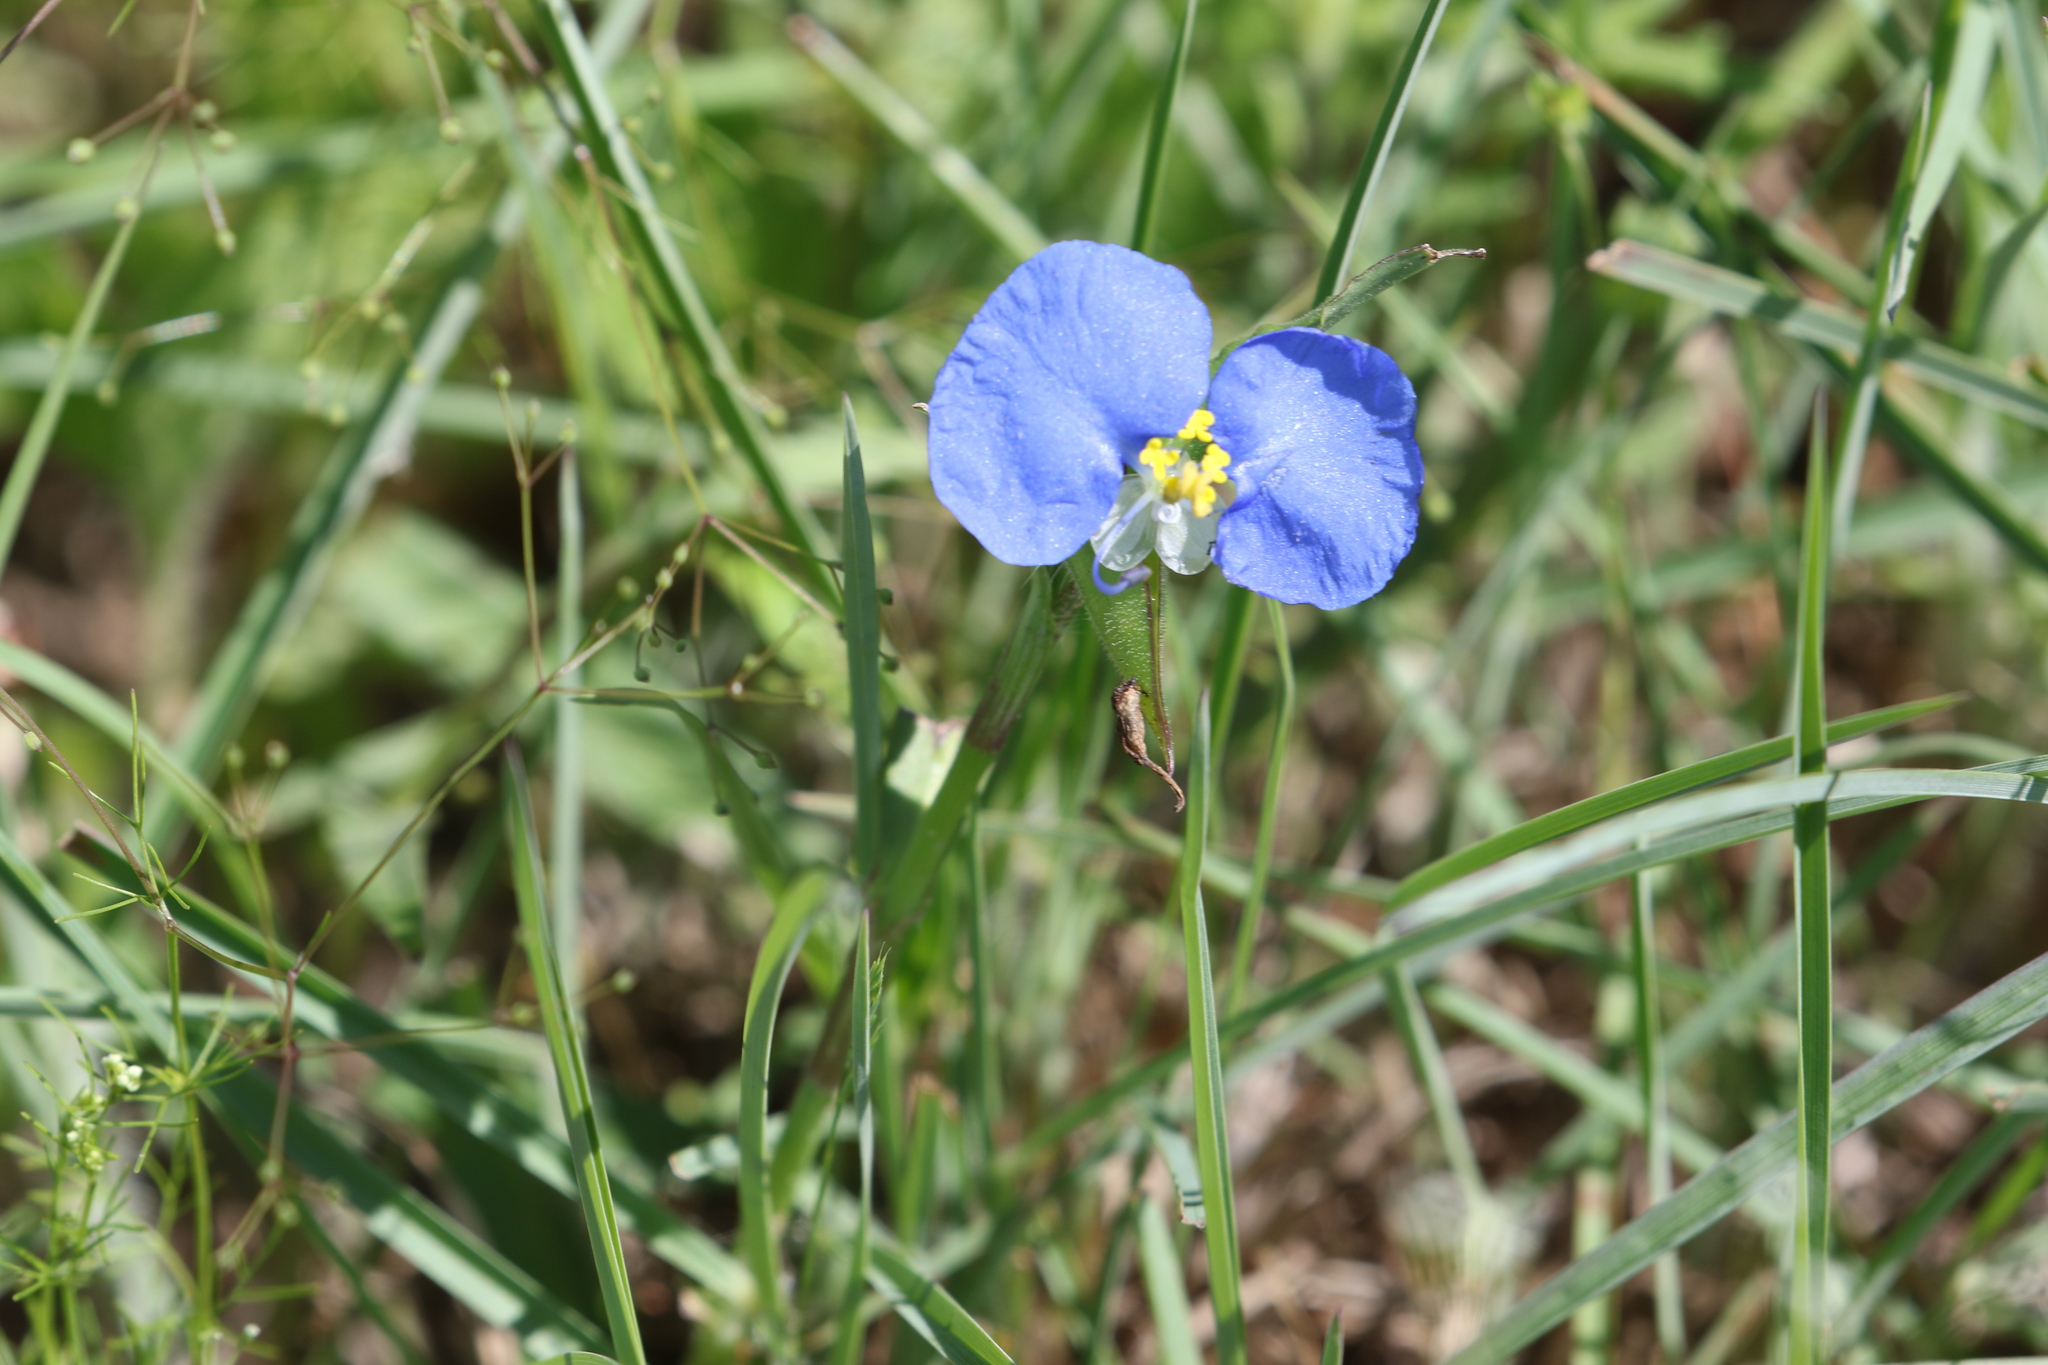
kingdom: Plantae
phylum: Tracheophyta
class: Liliopsida
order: Commelinales
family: Commelinaceae
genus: Commelina
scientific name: Commelina erecta
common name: Blousel blommetjie
